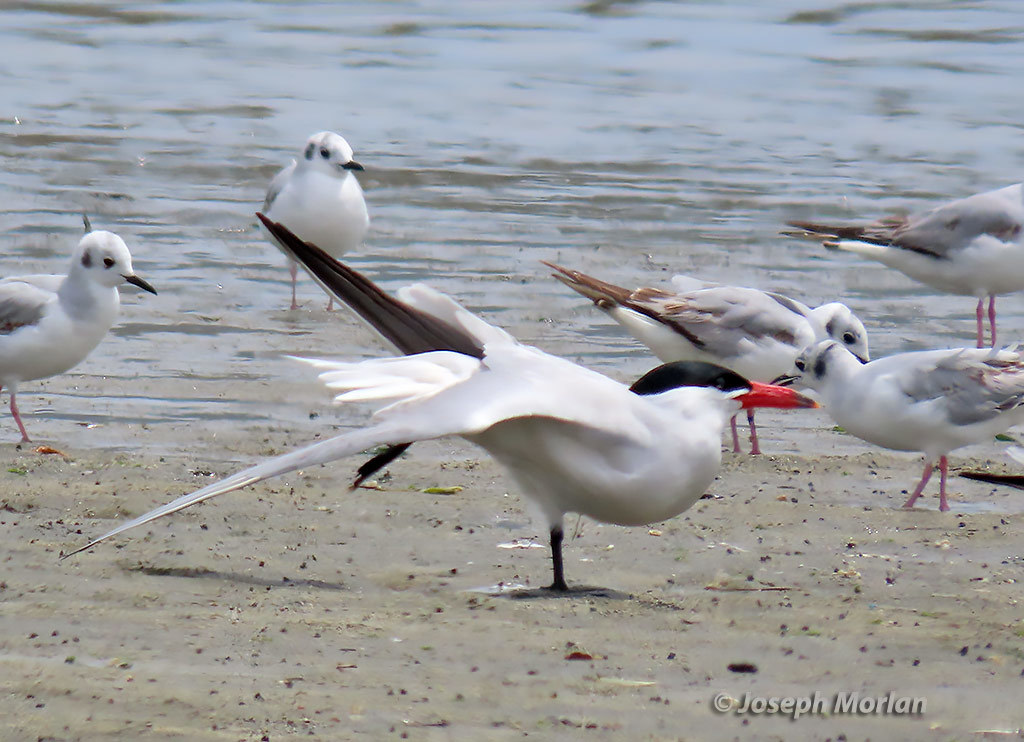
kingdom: Animalia
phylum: Chordata
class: Aves
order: Charadriiformes
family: Laridae
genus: Hydroprogne
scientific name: Hydroprogne caspia
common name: Caspian tern
